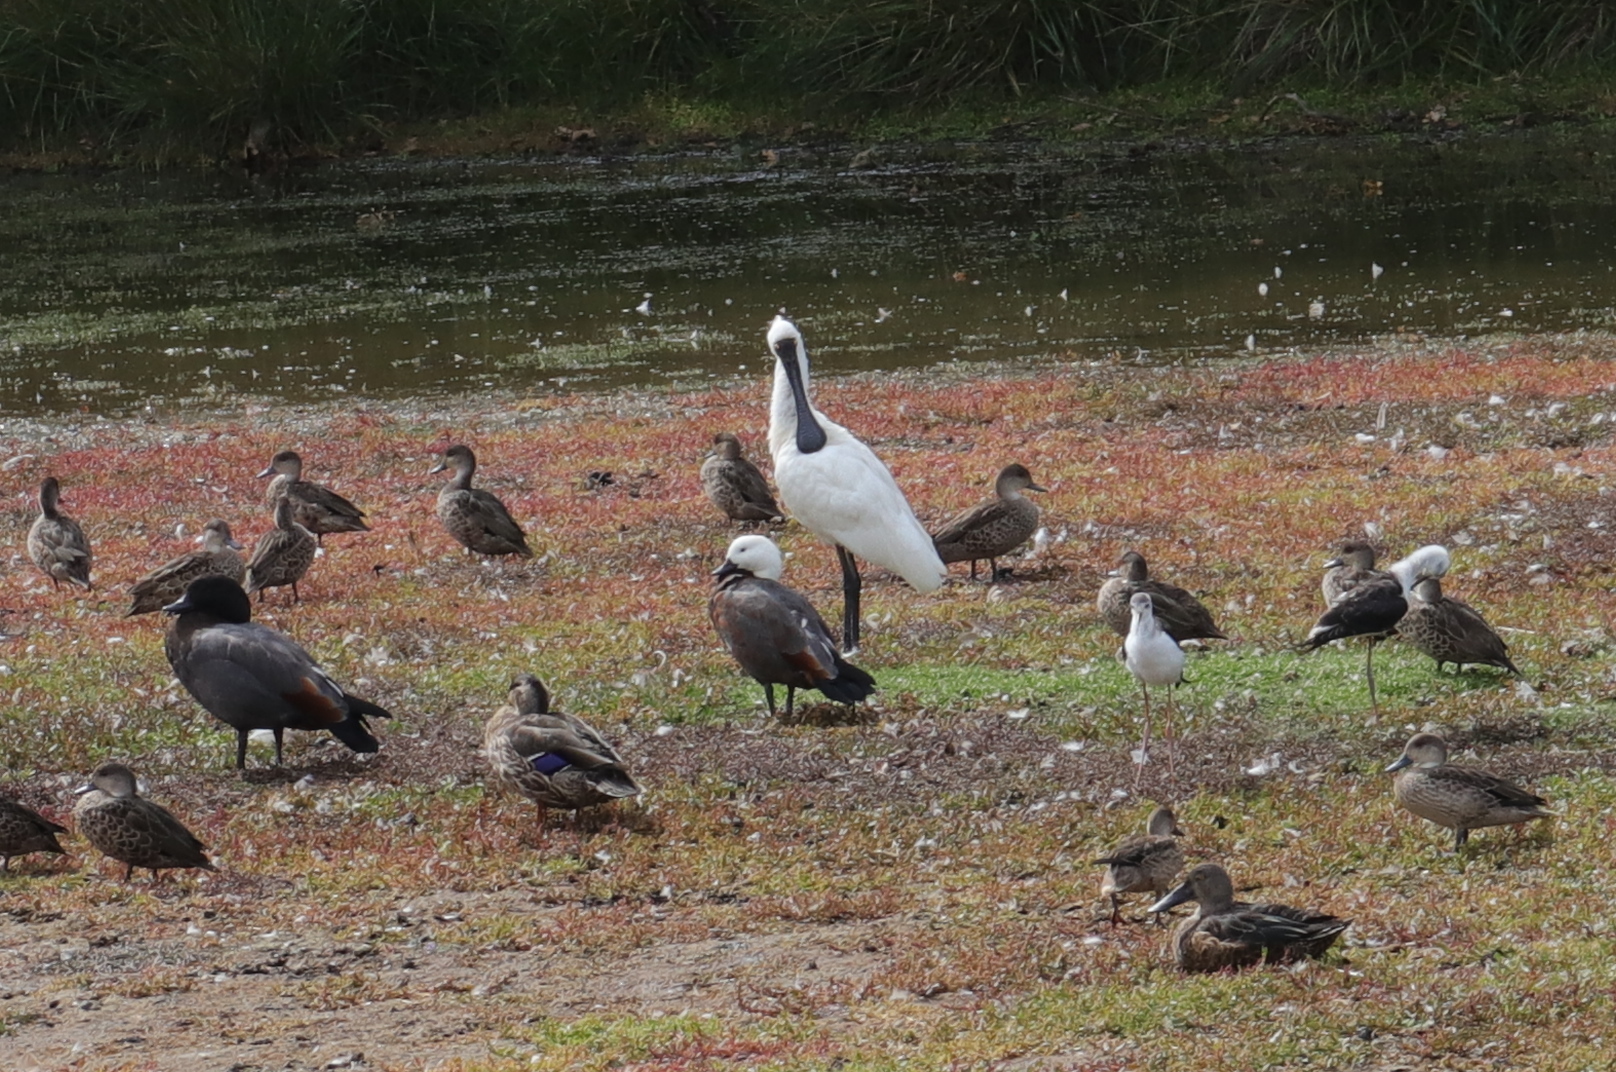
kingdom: Animalia
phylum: Chordata
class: Aves
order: Pelecaniformes
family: Threskiornithidae
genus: Platalea
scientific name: Platalea regia
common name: Royal spoonbill
